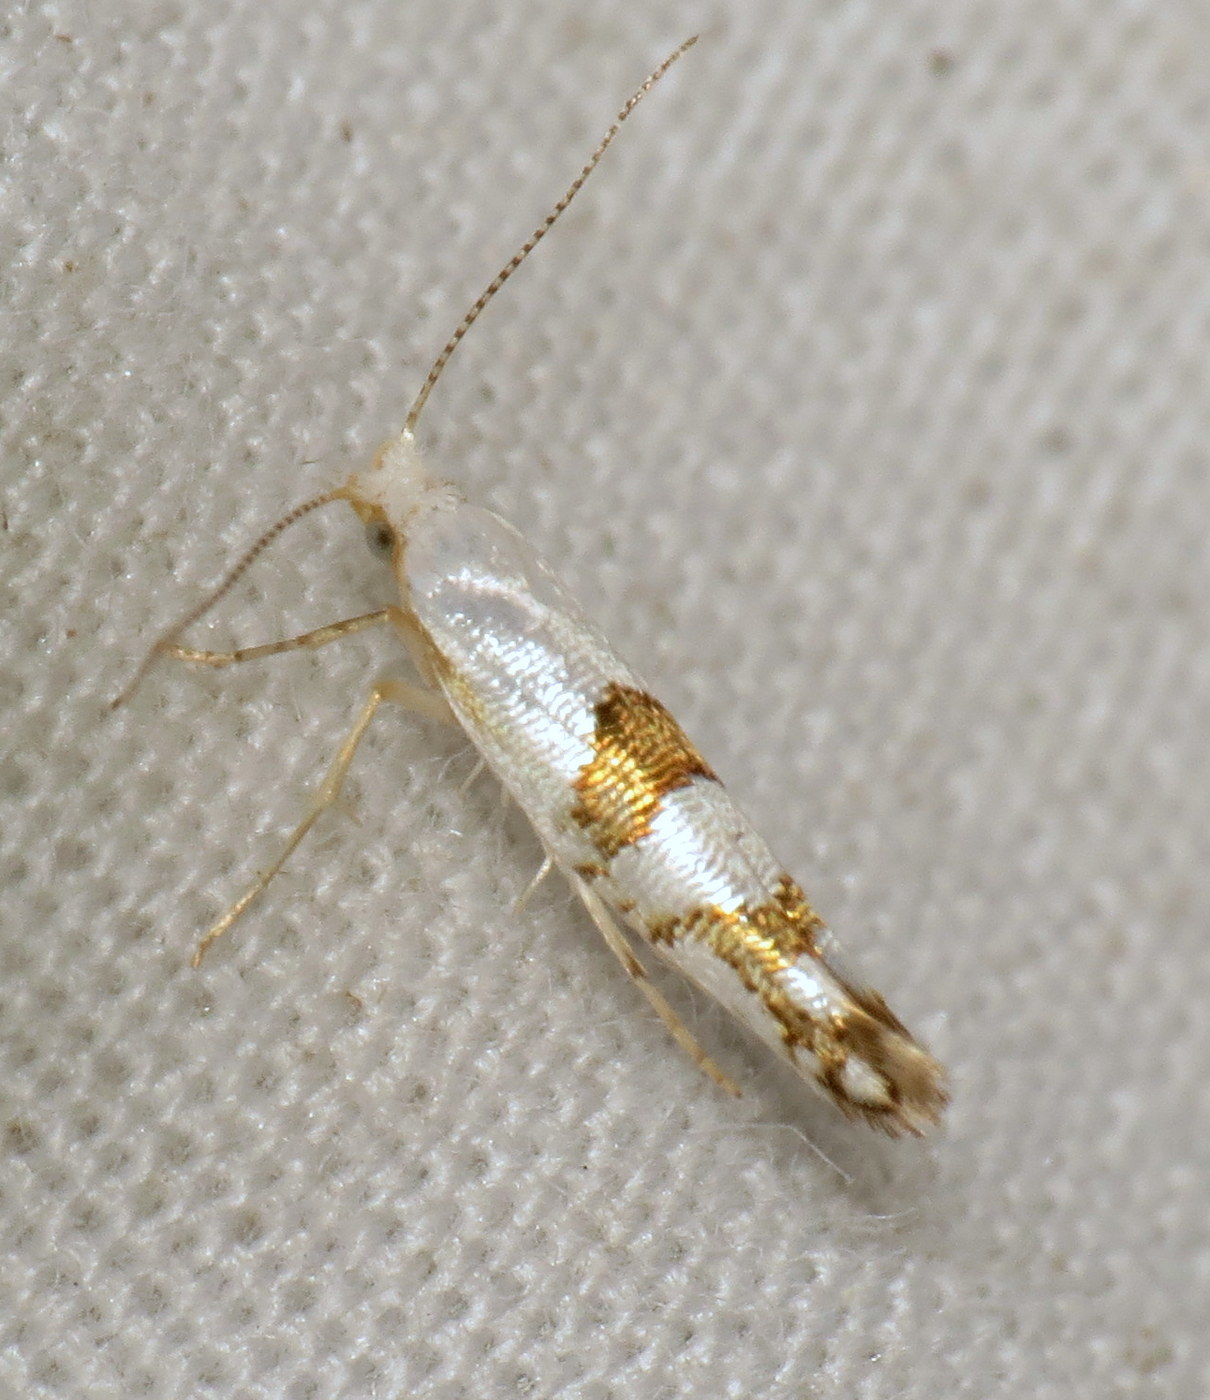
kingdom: Animalia
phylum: Arthropoda
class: Insecta
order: Lepidoptera
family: Argyresthiidae
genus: Argyresthia
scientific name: Argyresthia oreasella
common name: Cherry shoot borer moth
